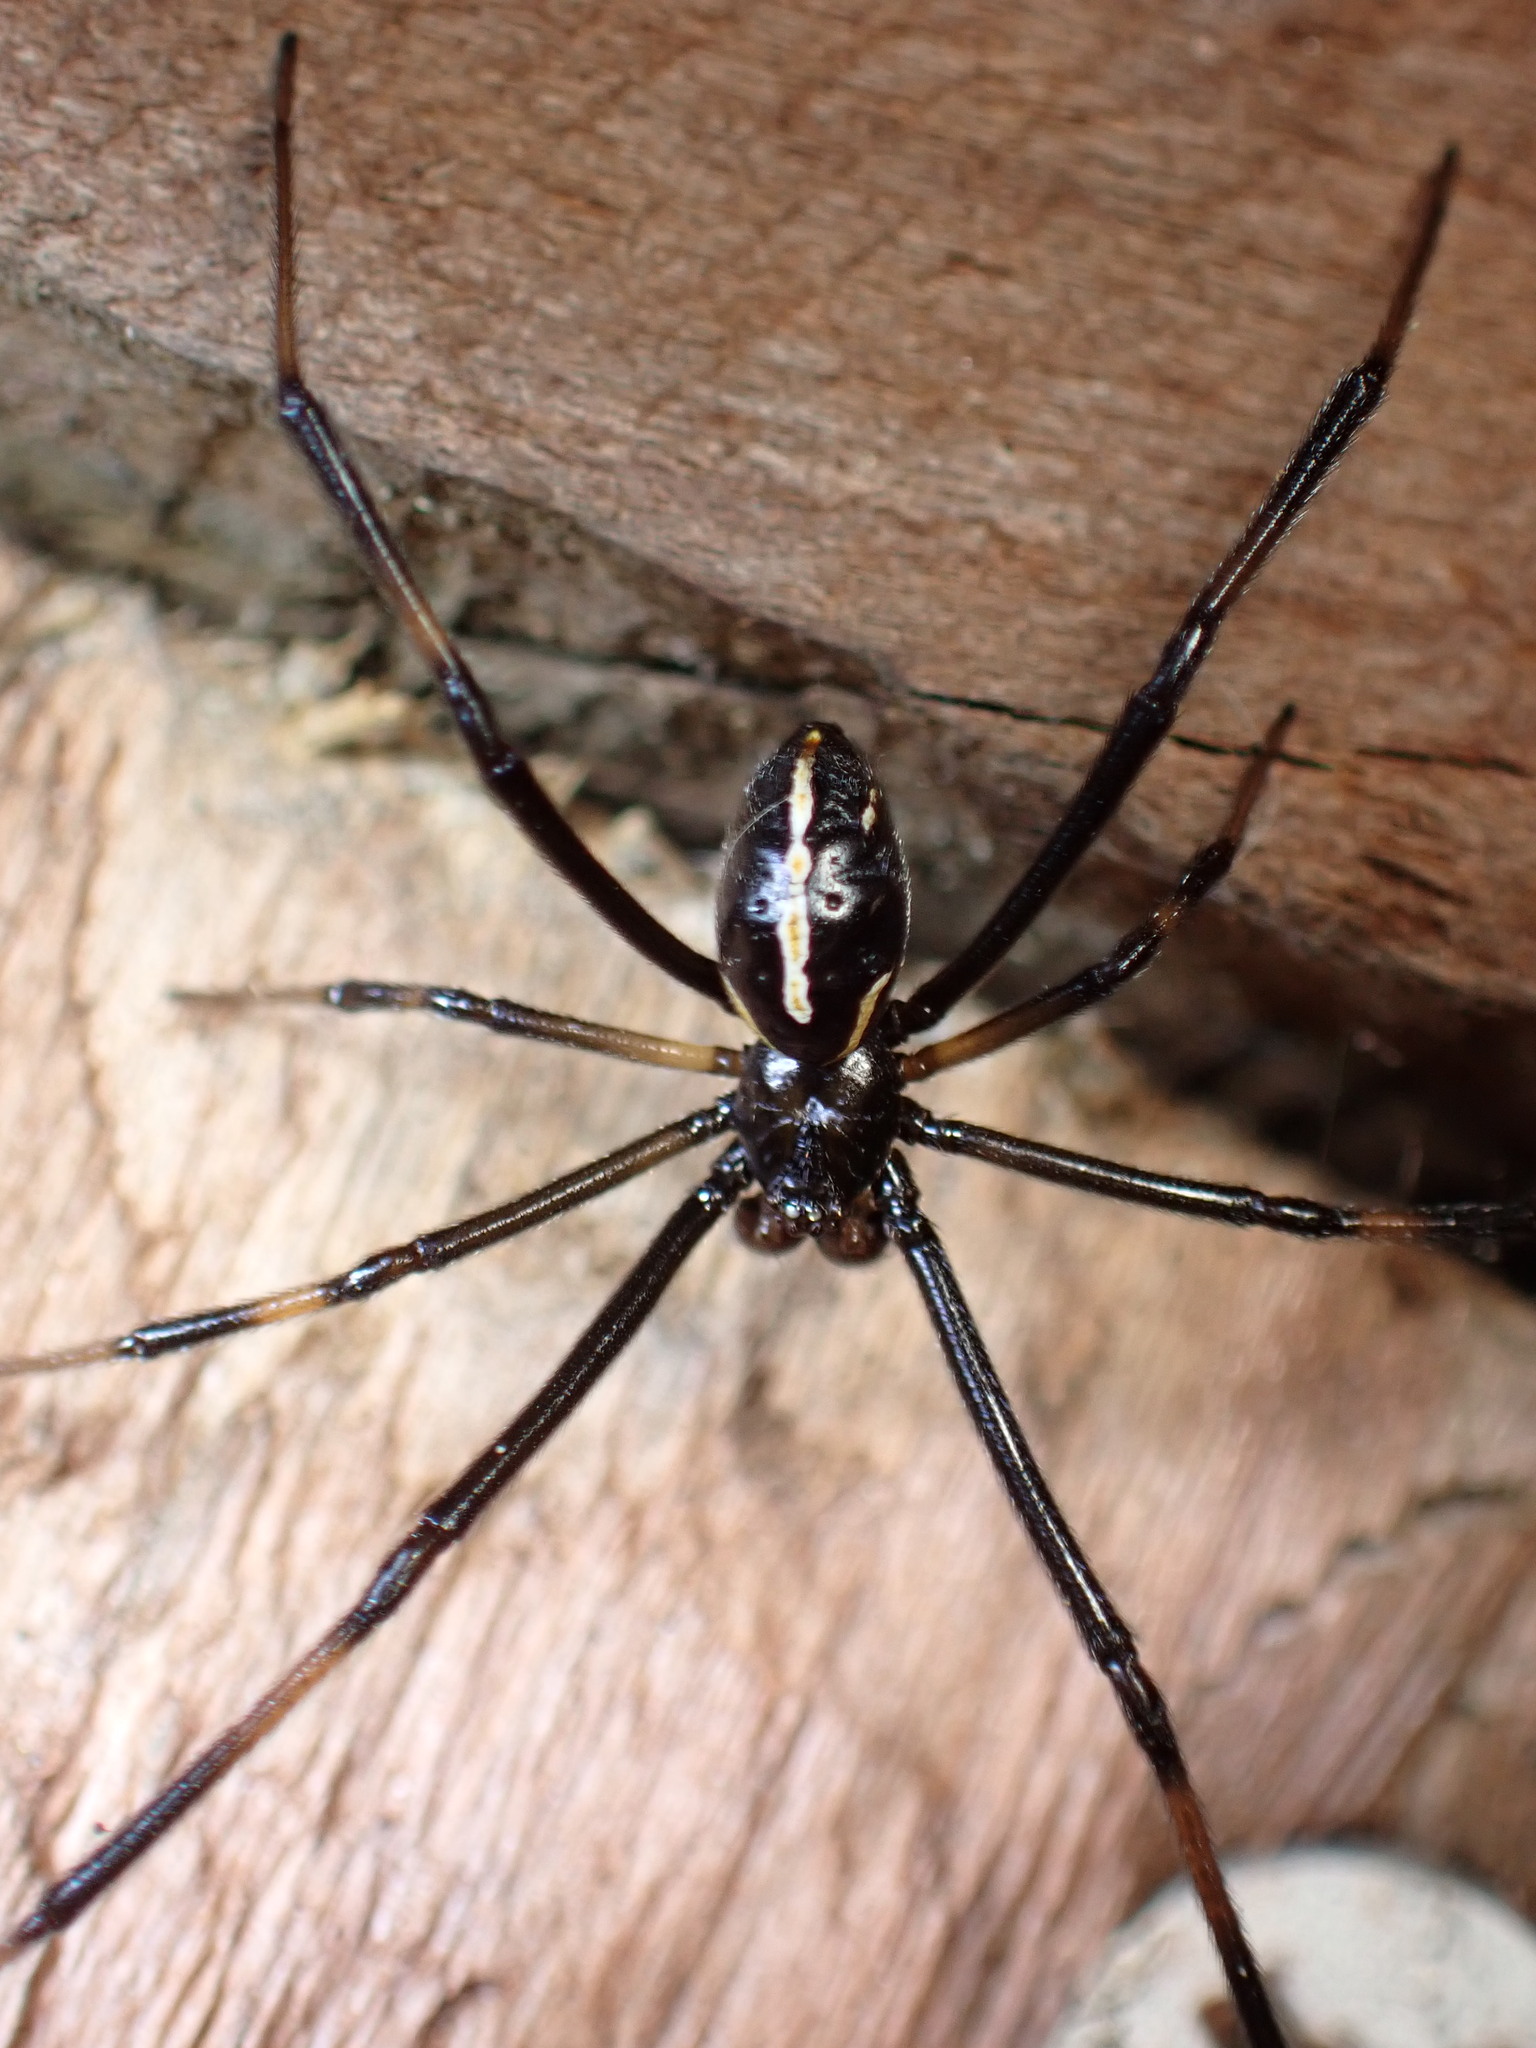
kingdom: Animalia
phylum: Arthropoda
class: Arachnida
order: Araneae
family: Theridiidae
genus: Latrodectus
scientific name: Latrodectus hesperus
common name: Western black widow
